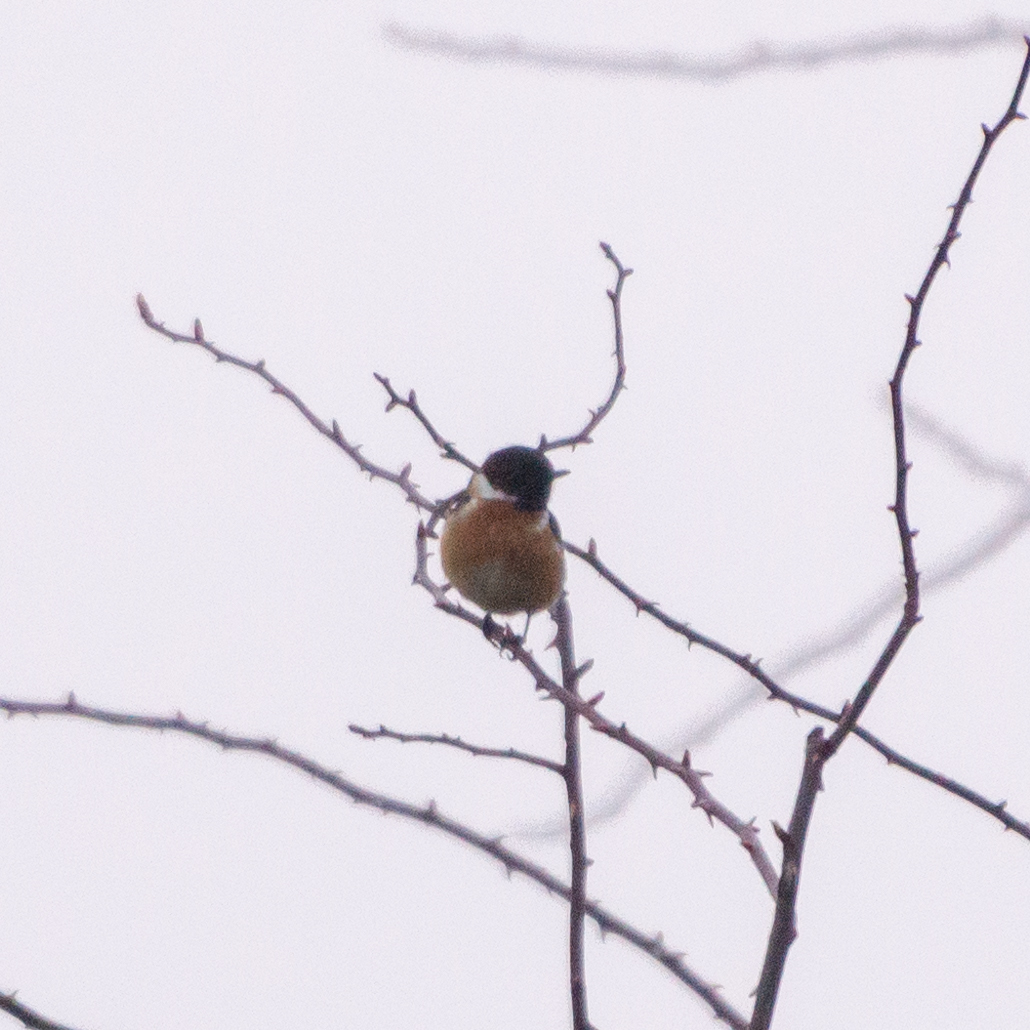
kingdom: Animalia
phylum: Chordata
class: Aves
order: Passeriformes
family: Muscicapidae
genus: Saxicola
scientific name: Saxicola rubicola
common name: European stonechat
